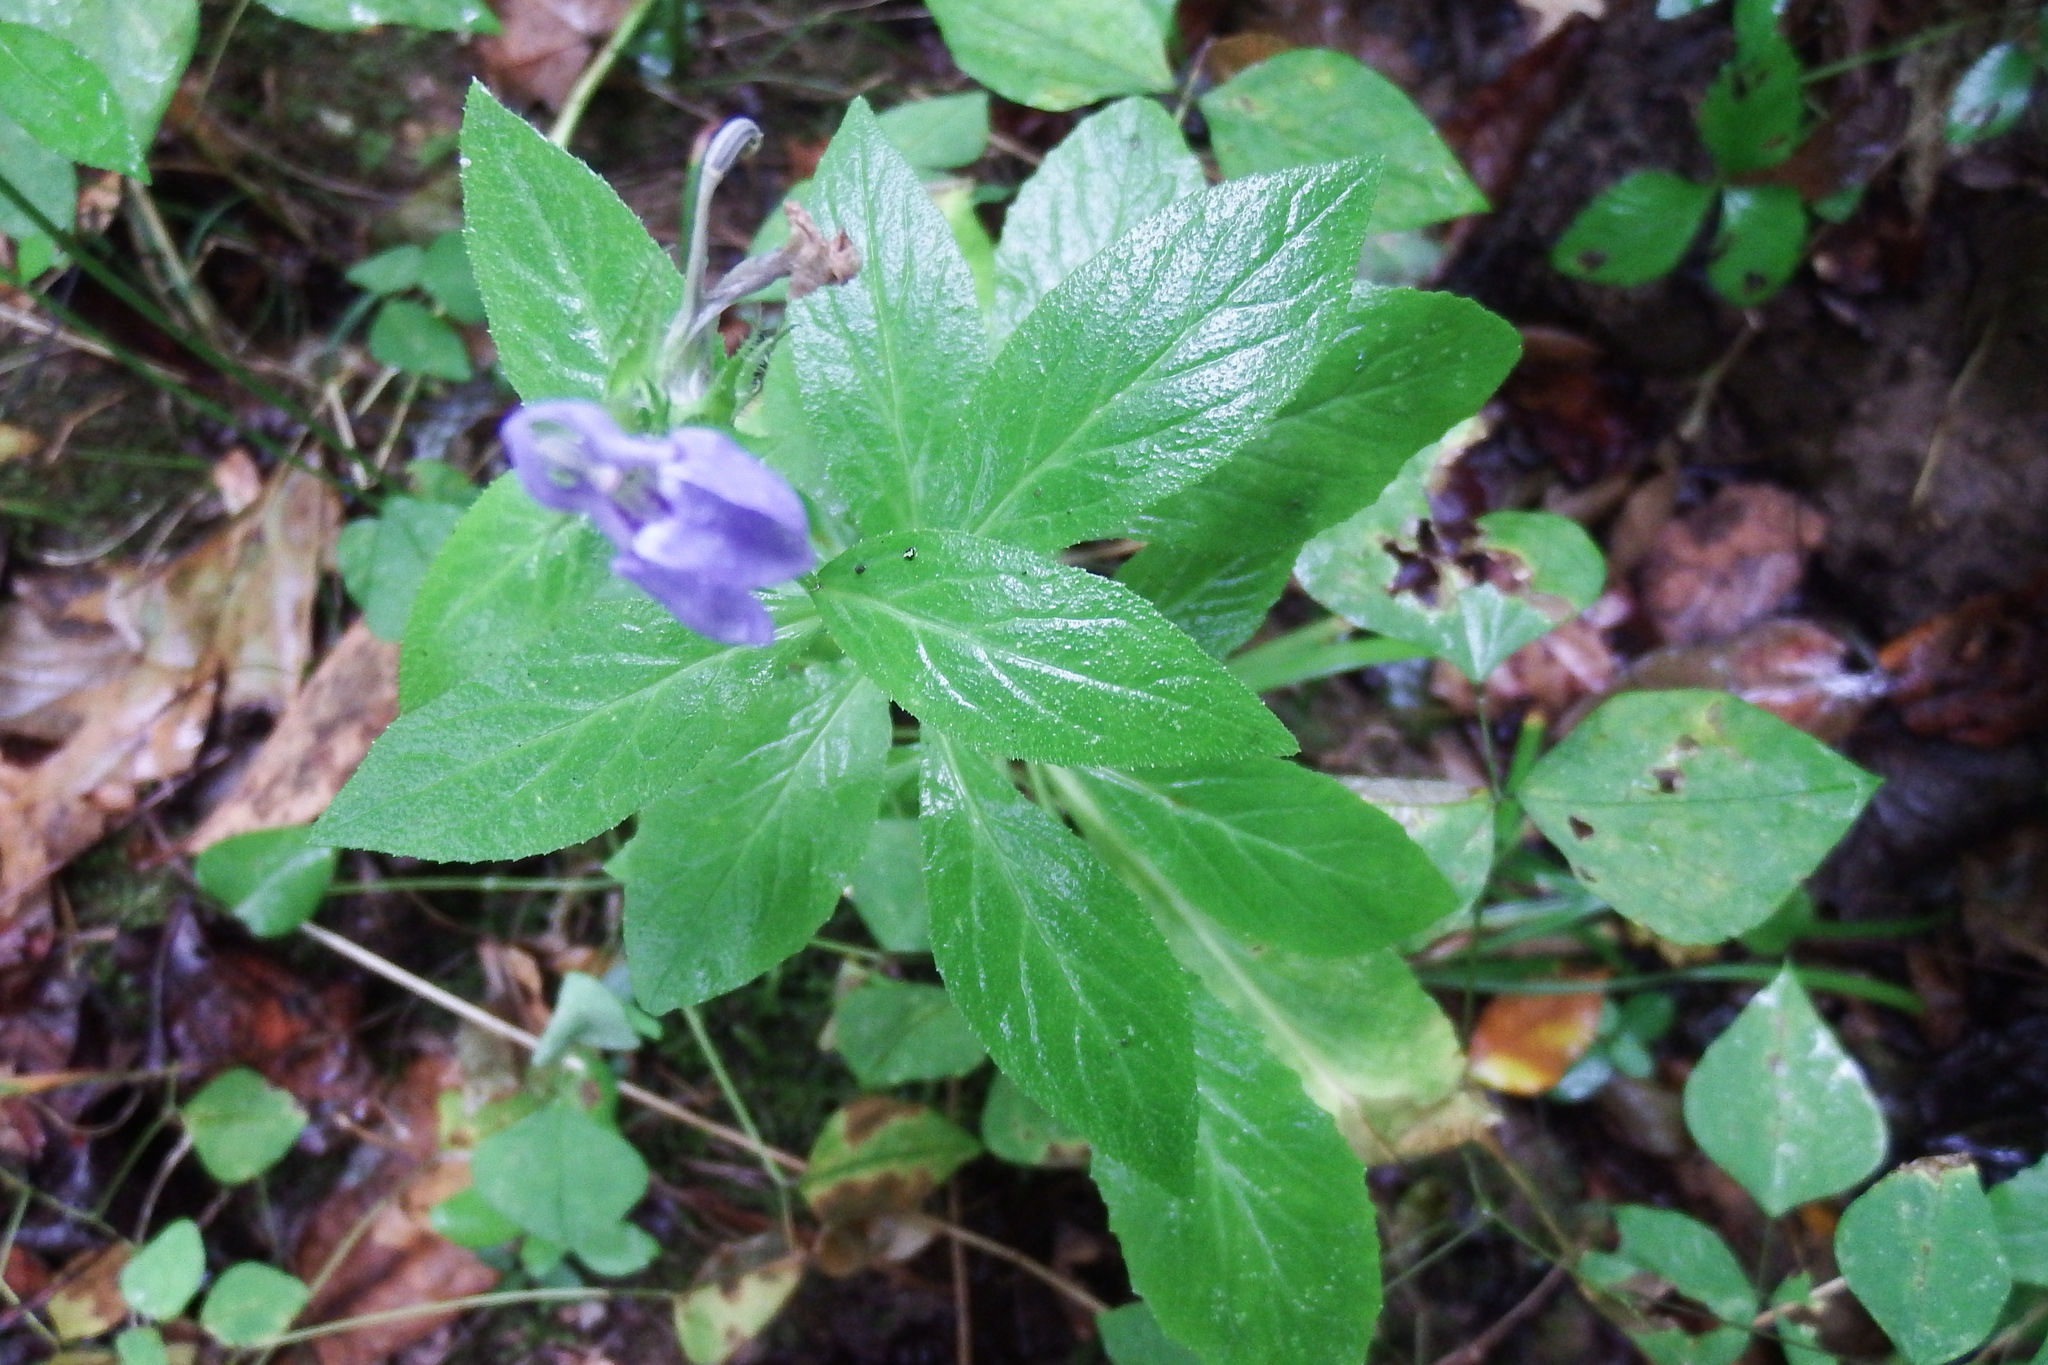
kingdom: Plantae
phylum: Tracheophyta
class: Magnoliopsida
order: Asterales
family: Campanulaceae
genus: Lobelia
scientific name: Lobelia siphilitica
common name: Great lobelia
